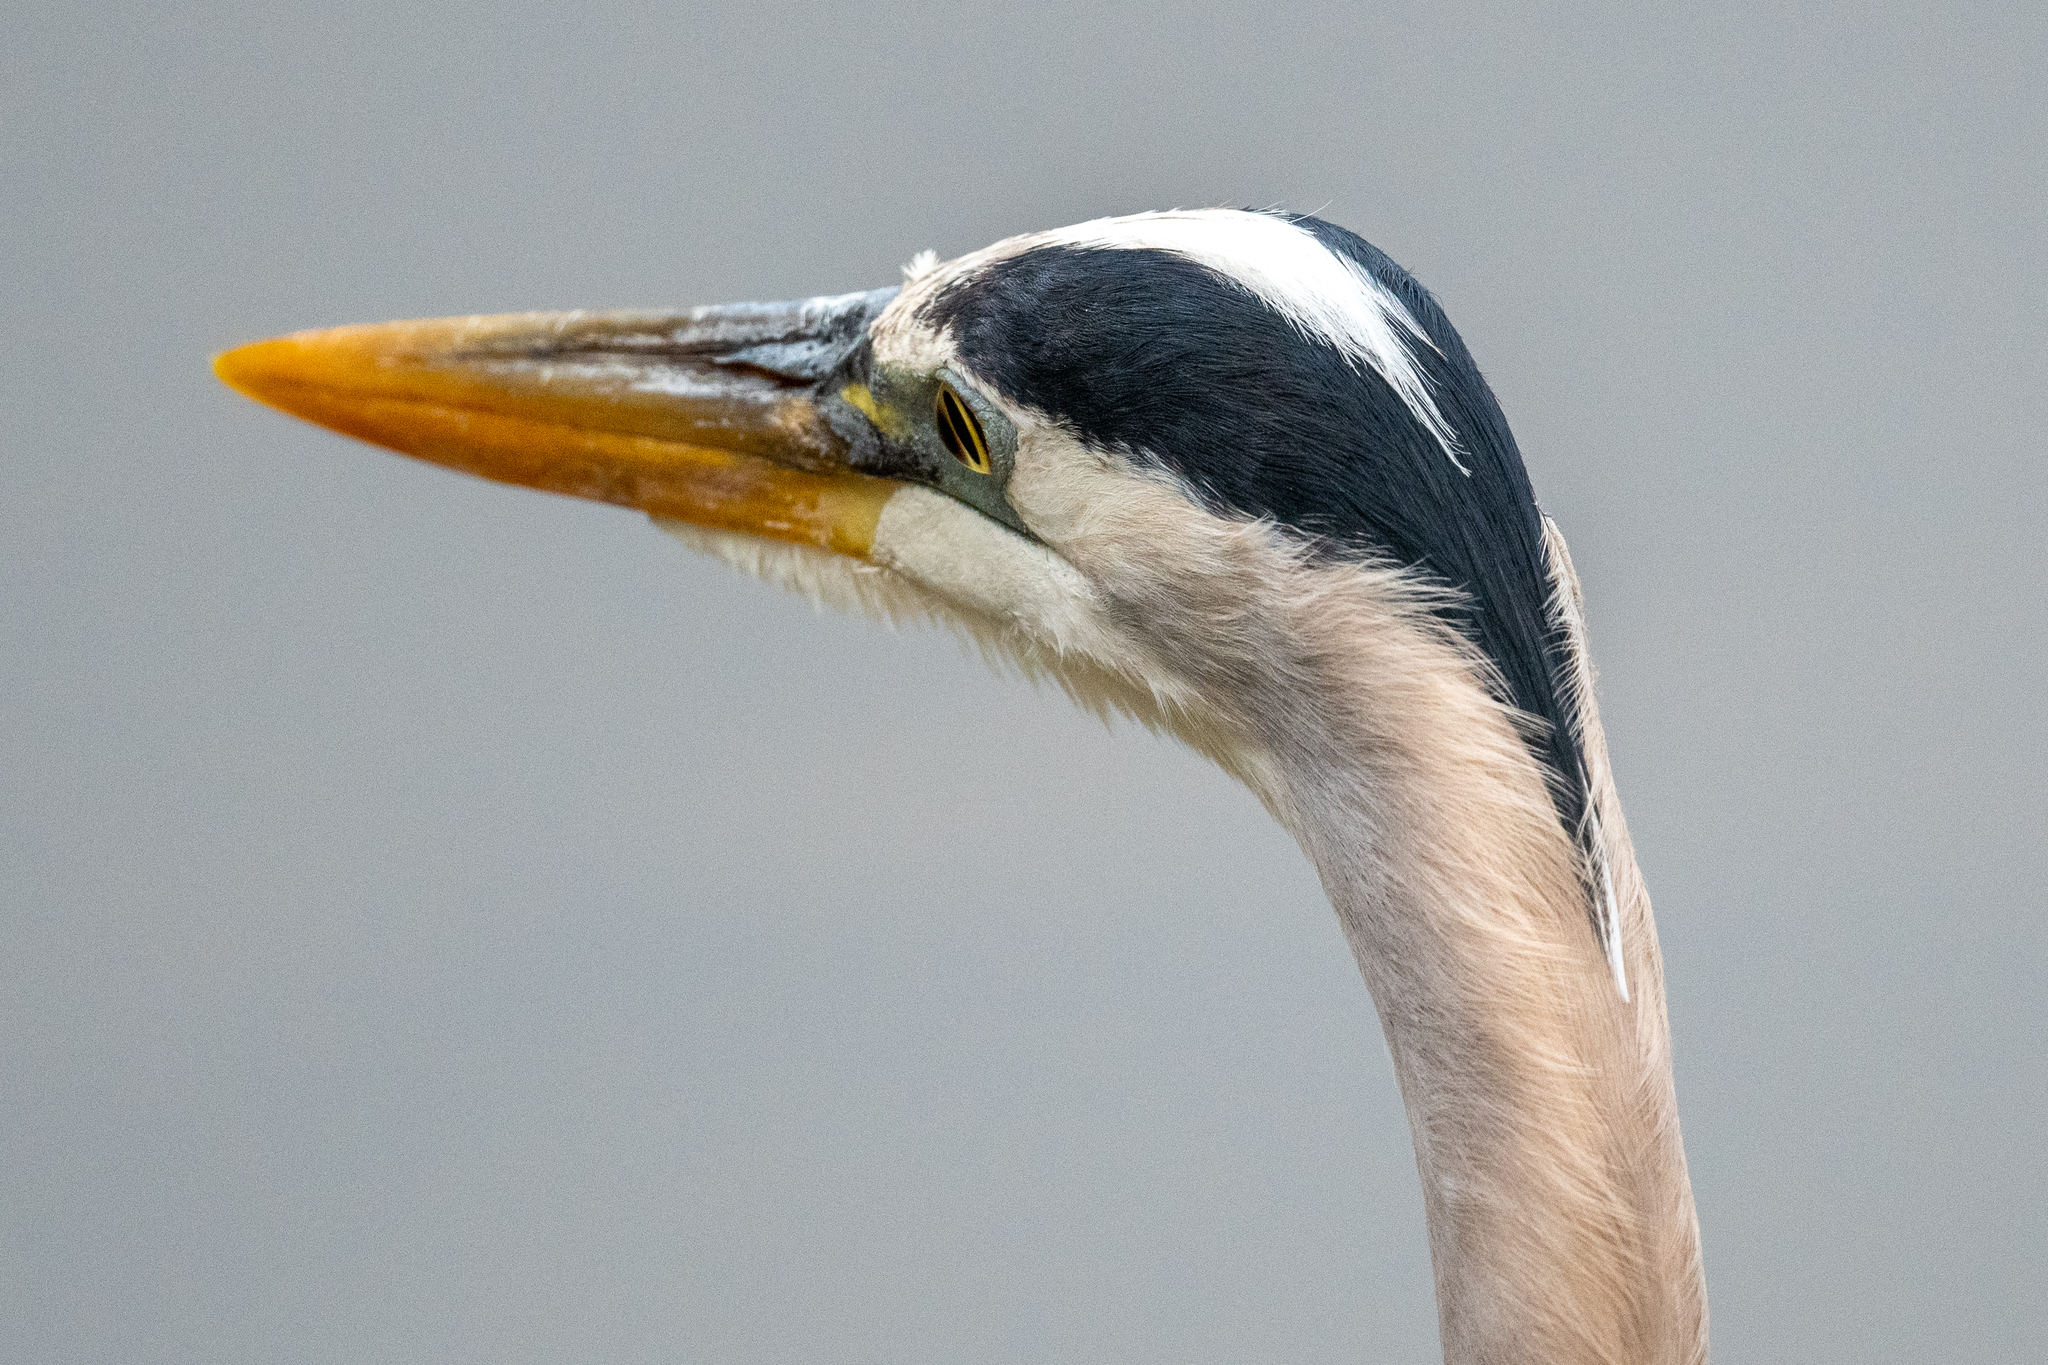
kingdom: Animalia
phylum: Chordata
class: Aves
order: Pelecaniformes
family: Ardeidae
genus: Ardea
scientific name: Ardea herodias
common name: Great blue heron
